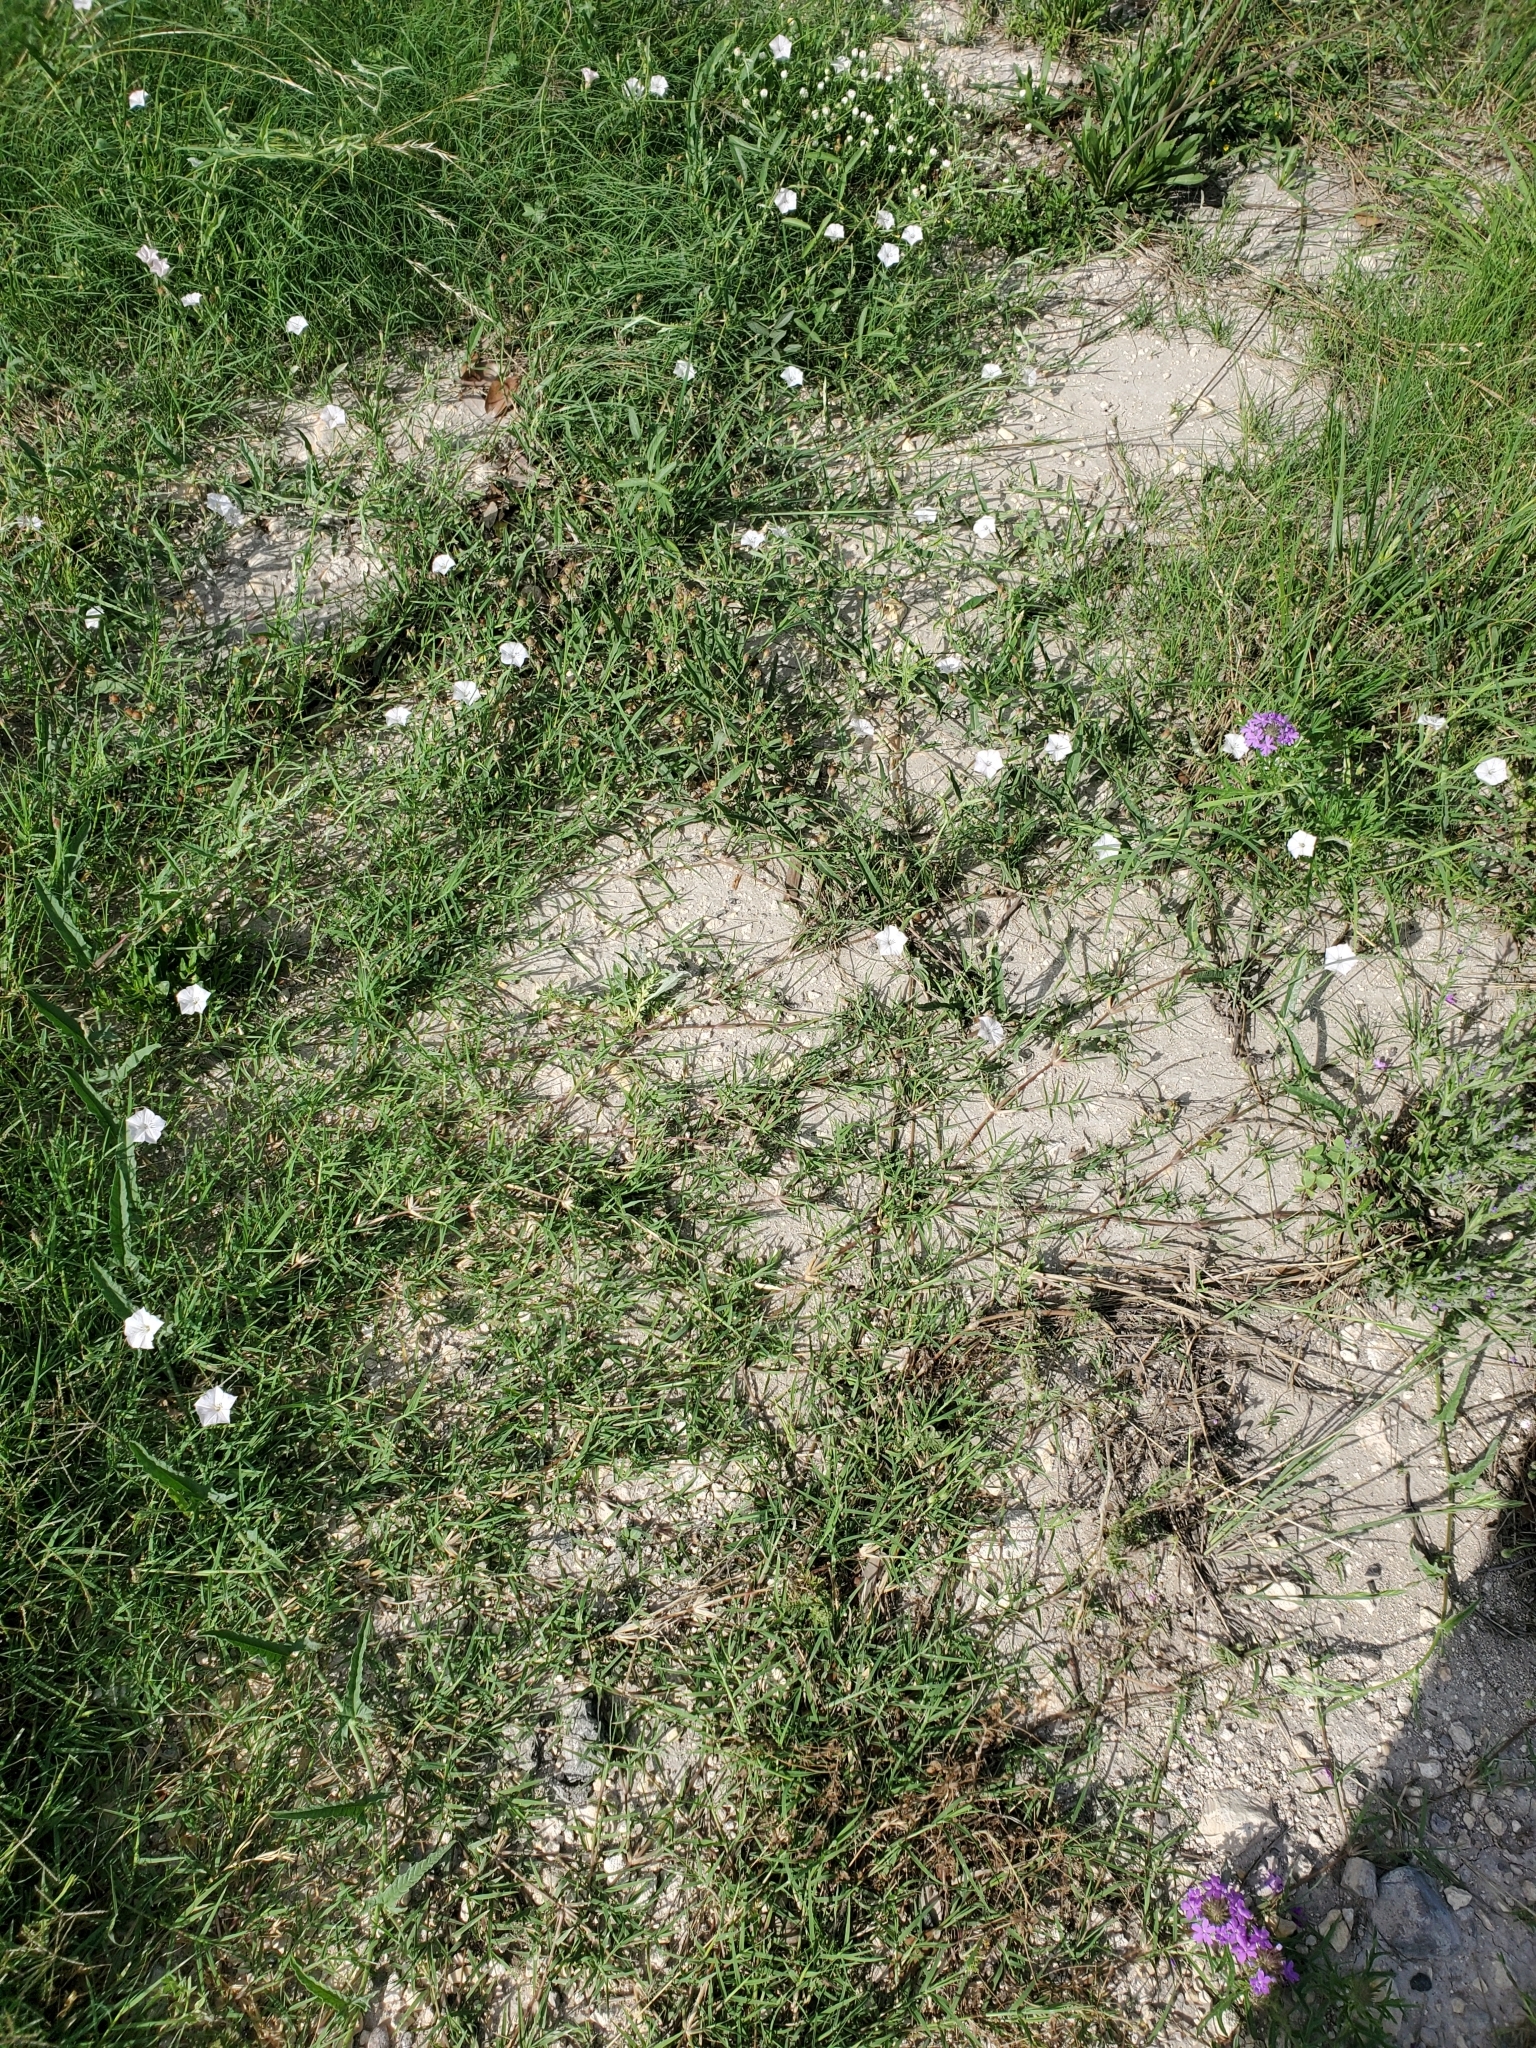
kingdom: Plantae
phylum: Tracheophyta
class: Magnoliopsida
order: Solanales
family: Convolvulaceae
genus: Convolvulus
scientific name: Convolvulus equitans
